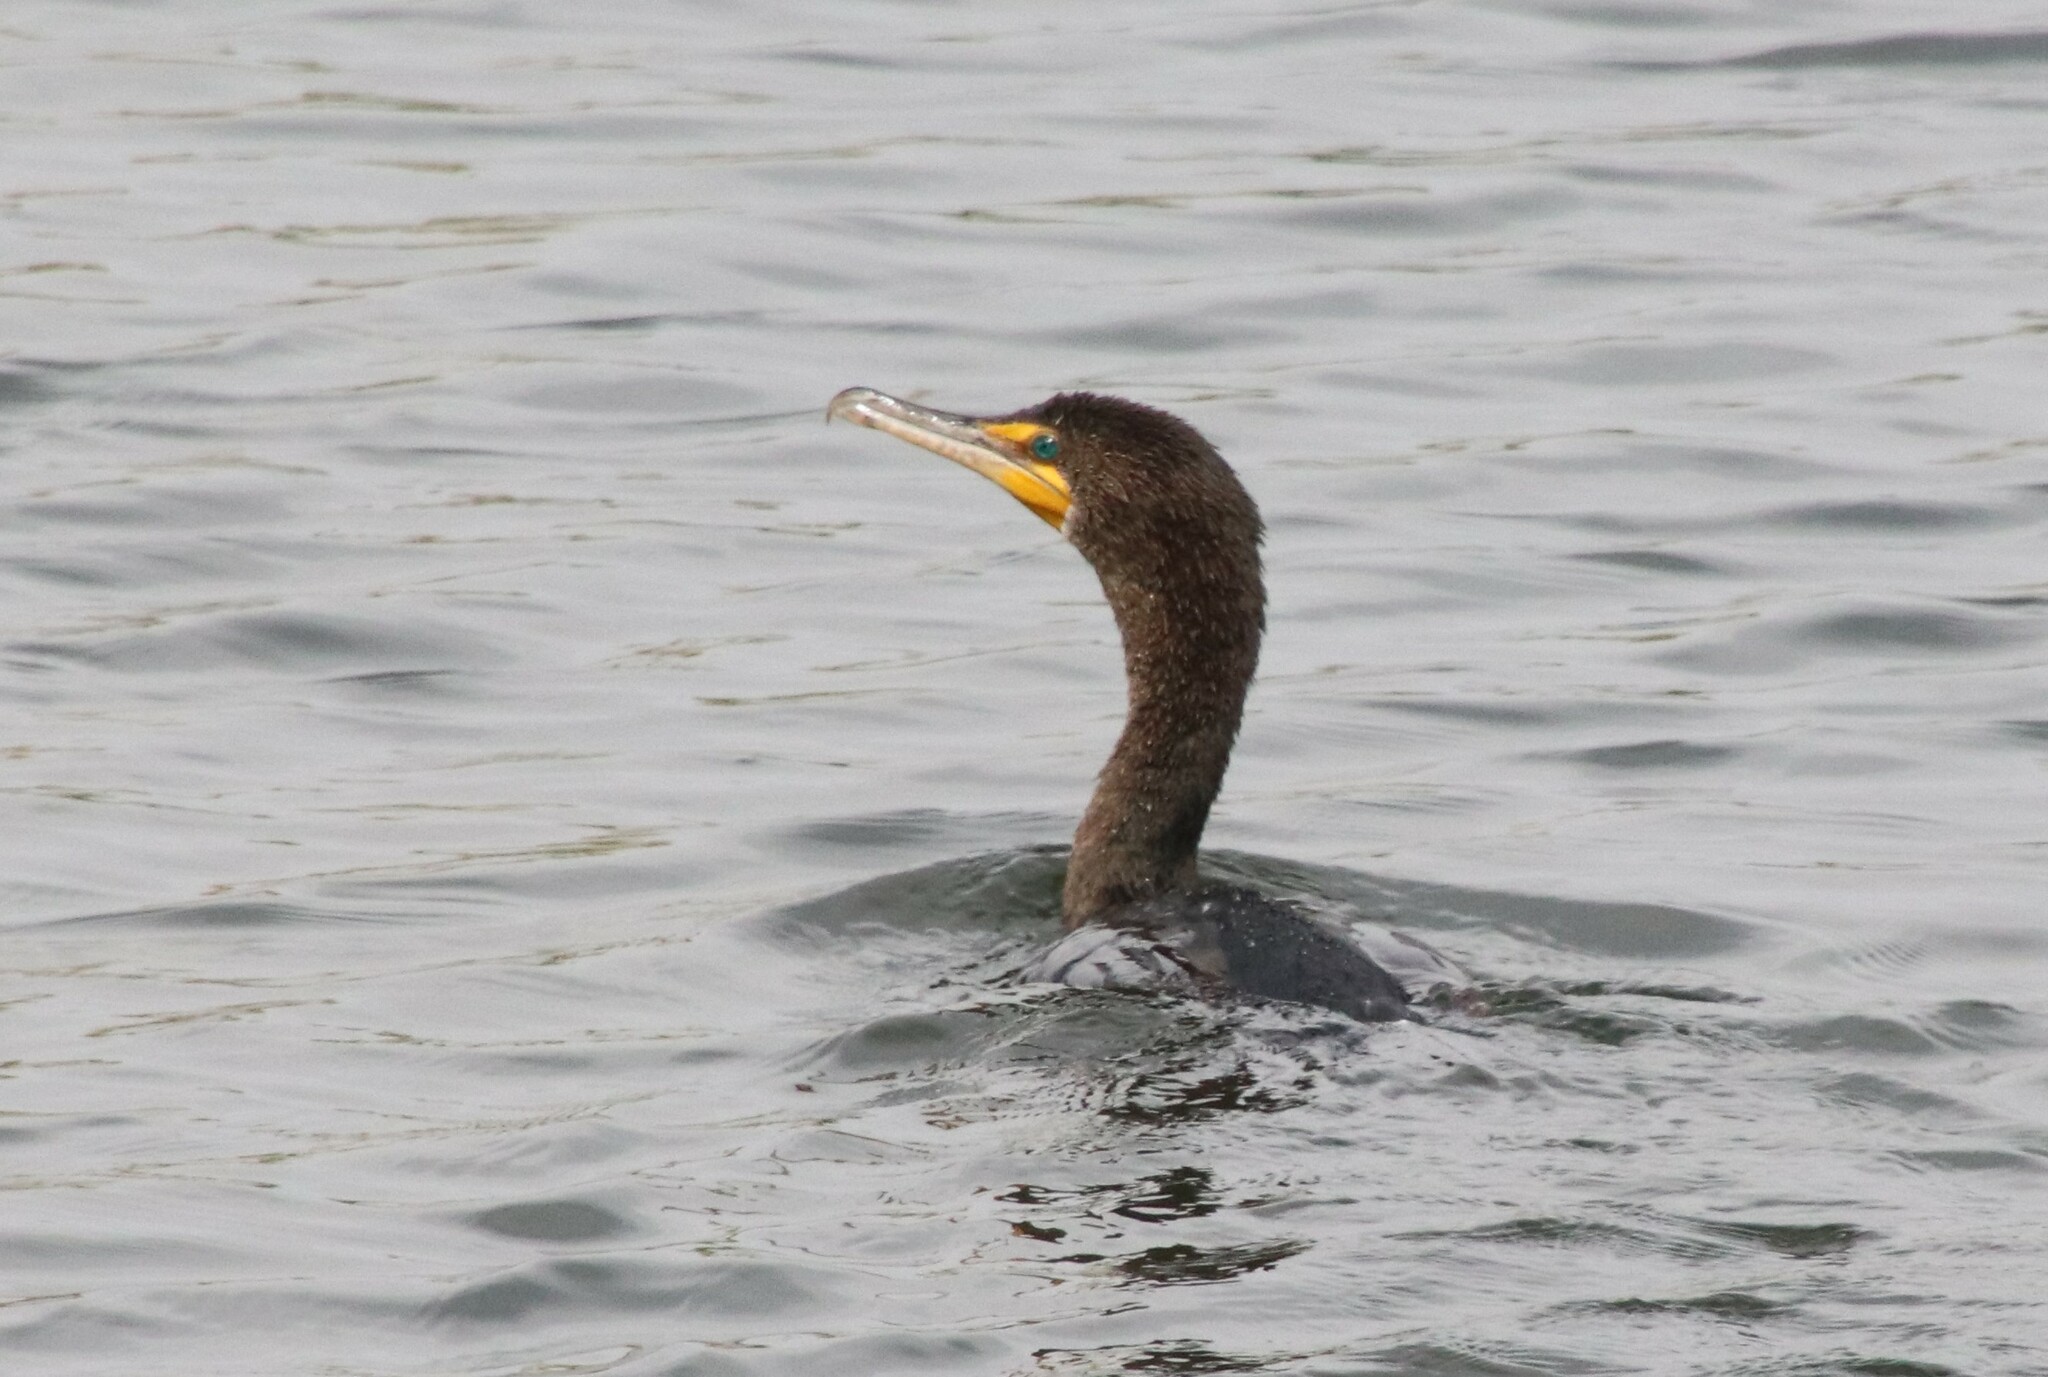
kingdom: Animalia
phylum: Chordata
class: Aves
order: Suliformes
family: Phalacrocoracidae
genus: Phalacrocorax
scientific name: Phalacrocorax auritus
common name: Double-crested cormorant
